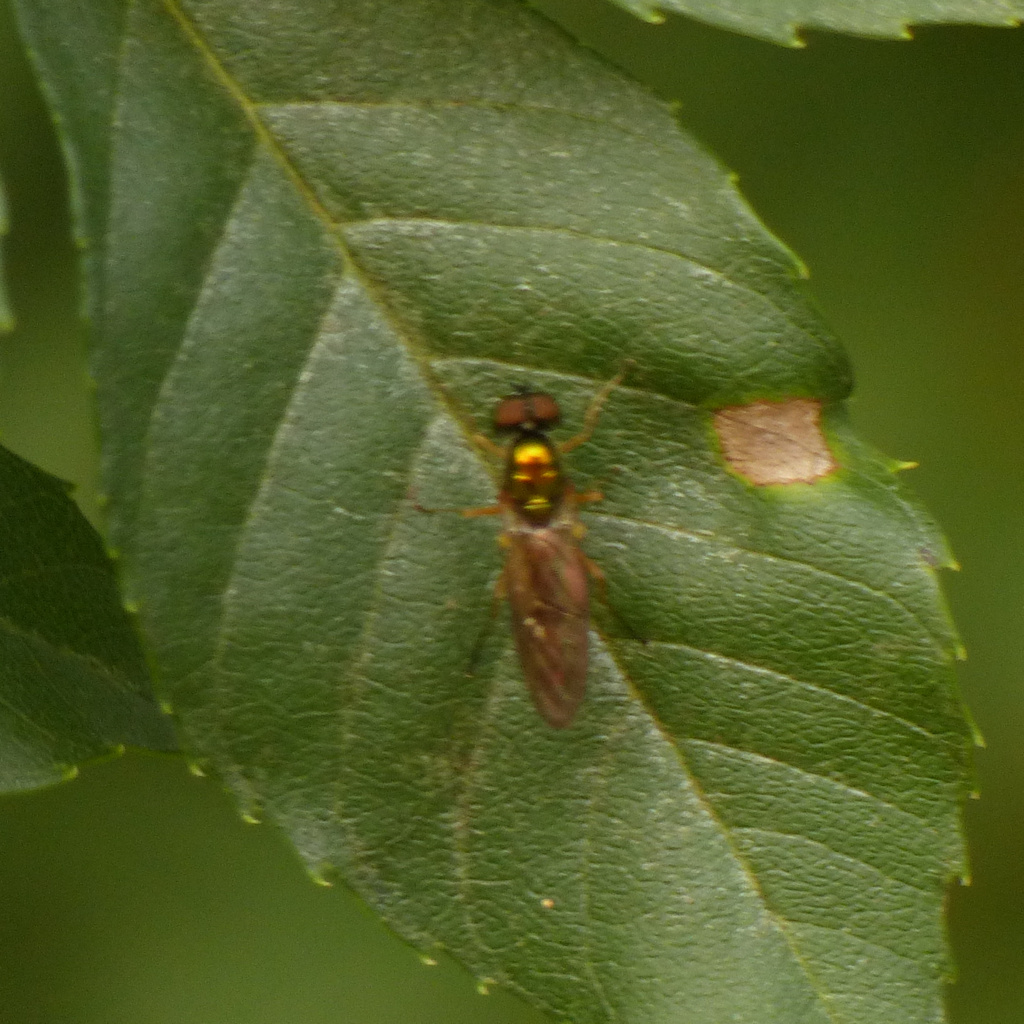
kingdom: Animalia
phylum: Arthropoda
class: Insecta
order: Diptera
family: Stratiomyidae
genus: Sargus
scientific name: Sargus bipunctatus
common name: Twin-spot centurion
